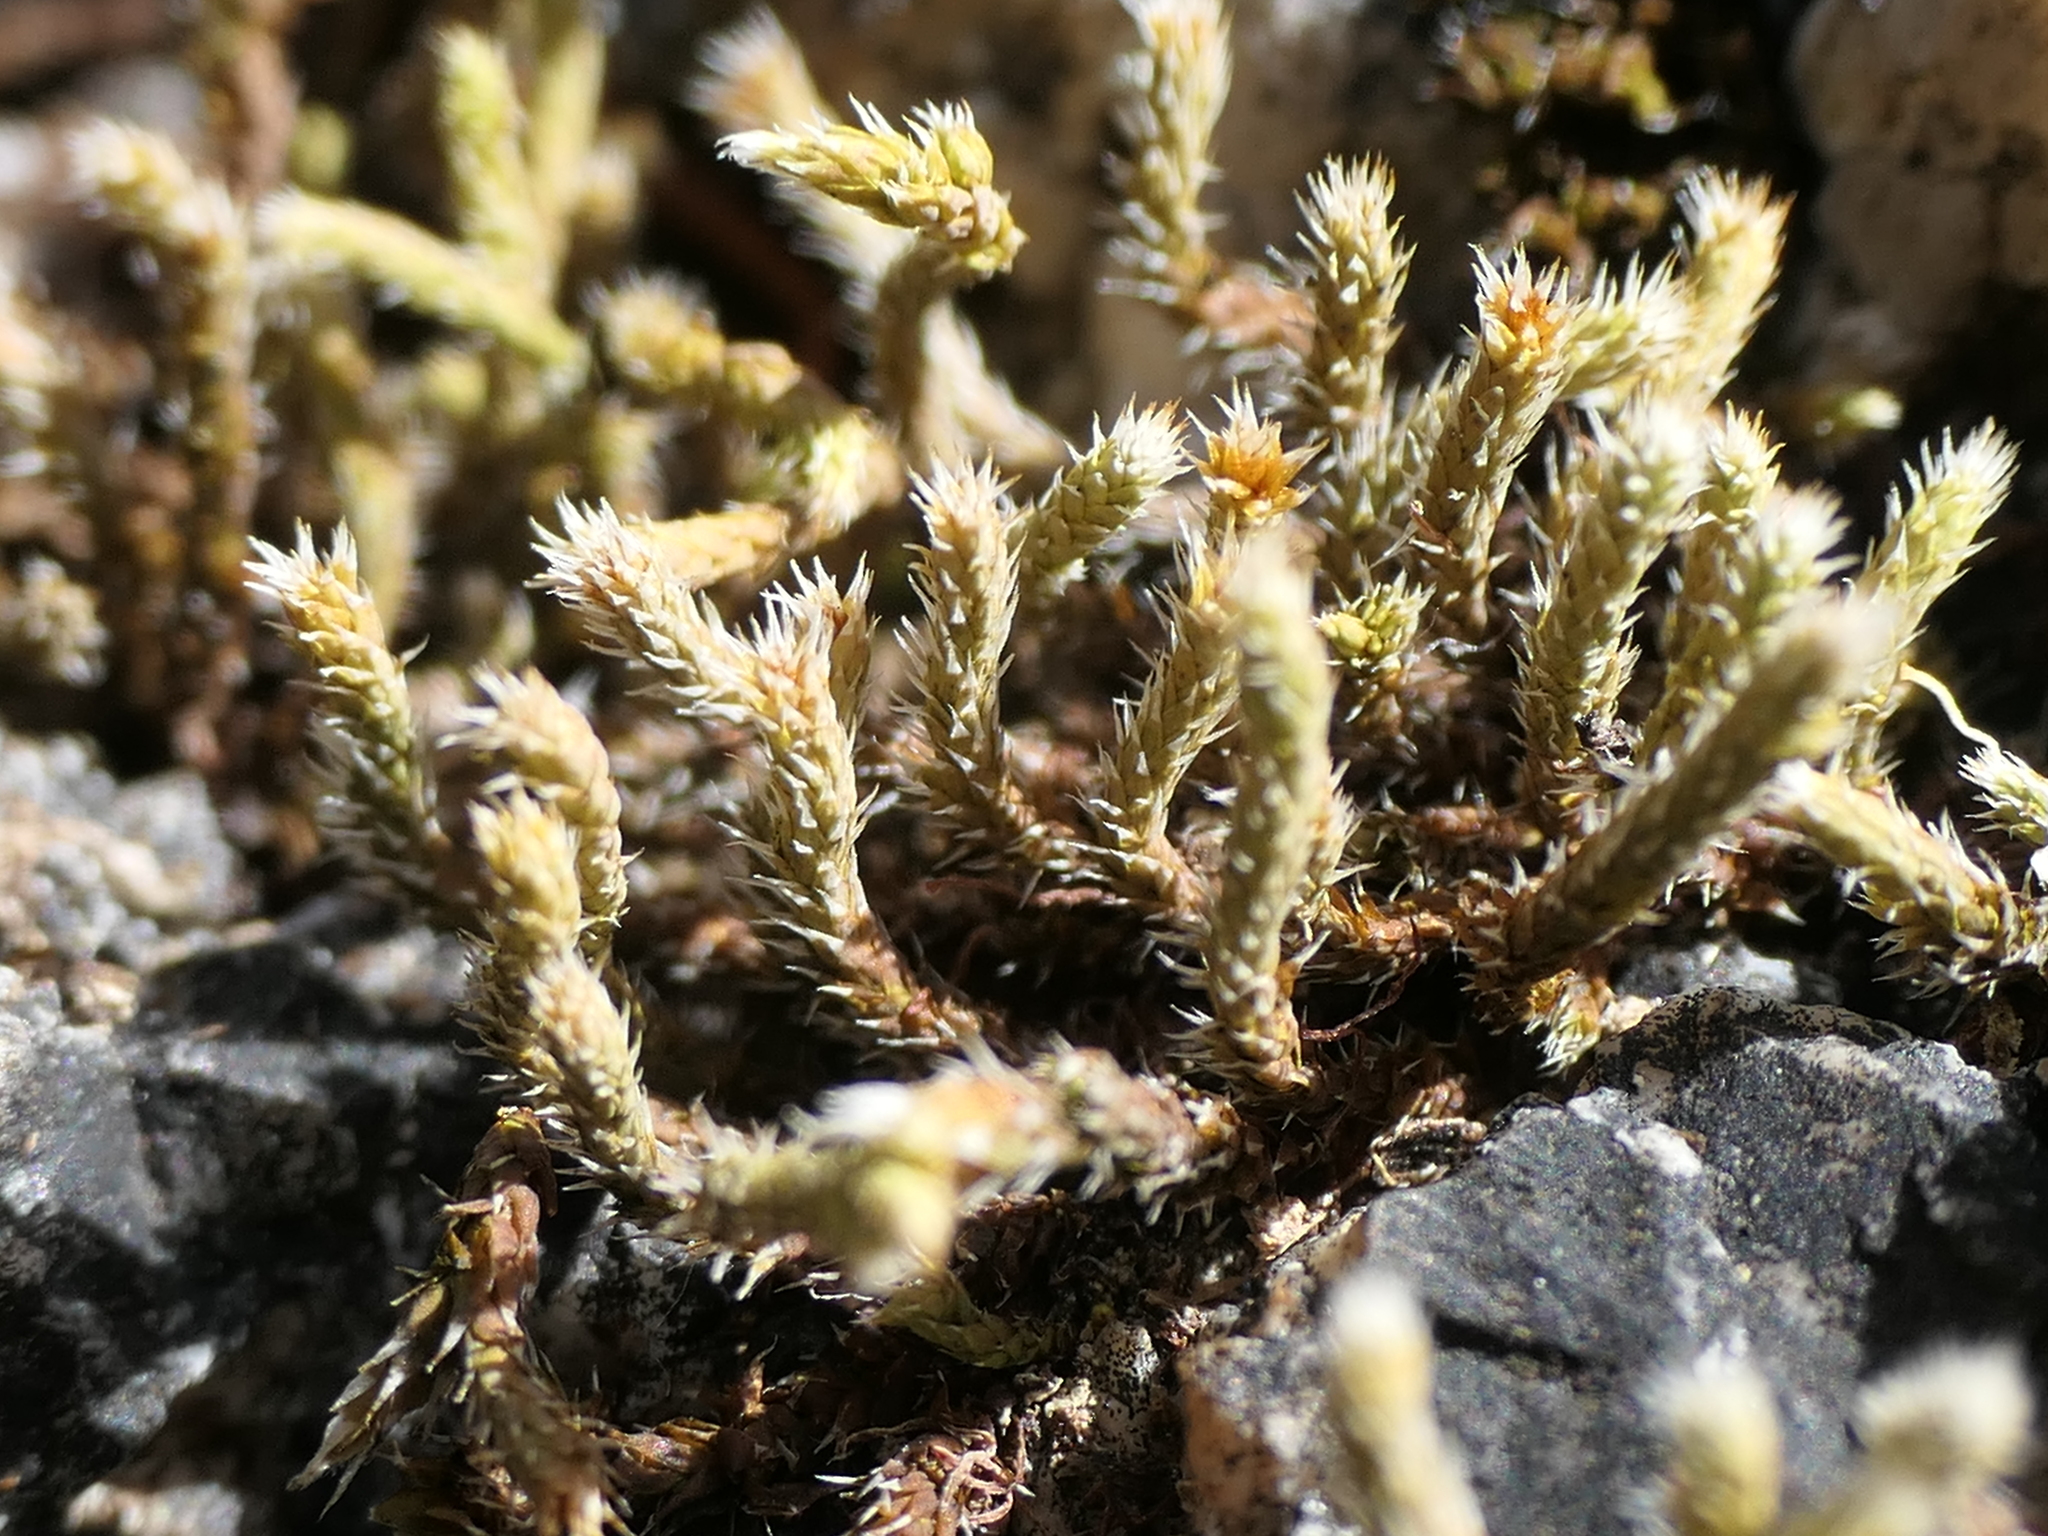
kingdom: Plantae
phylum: Bryophyta
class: Bryopsida
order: Hedwigiales
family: Hedwigiaceae
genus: Hedwigia
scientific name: Hedwigia ciliata
